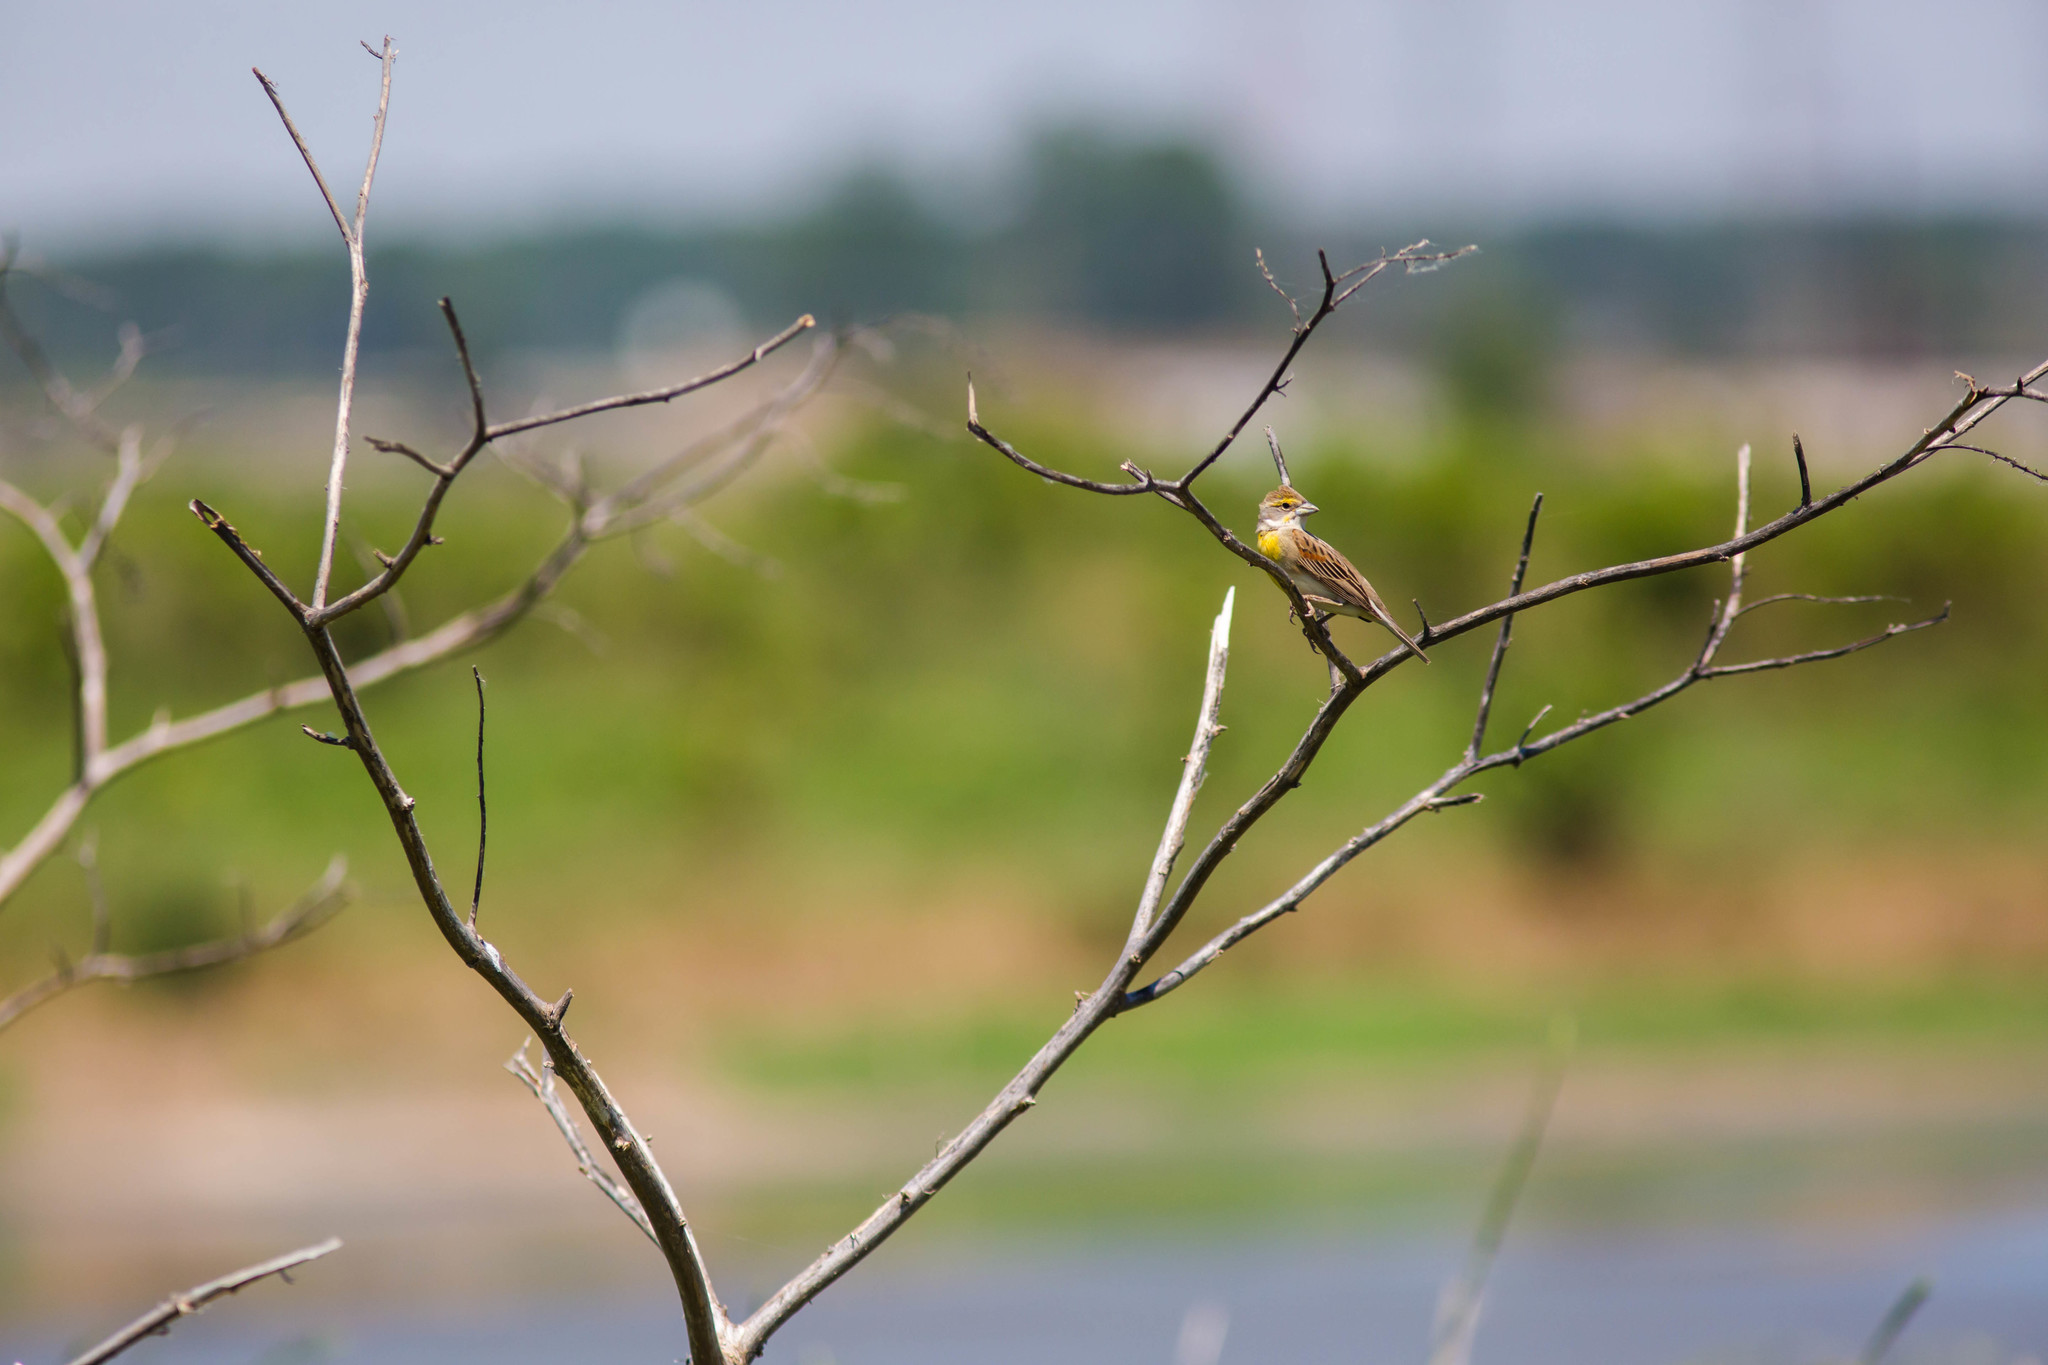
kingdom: Animalia
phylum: Chordata
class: Aves
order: Passeriformes
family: Cardinalidae
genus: Spiza
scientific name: Spiza americana
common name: Dickcissel
